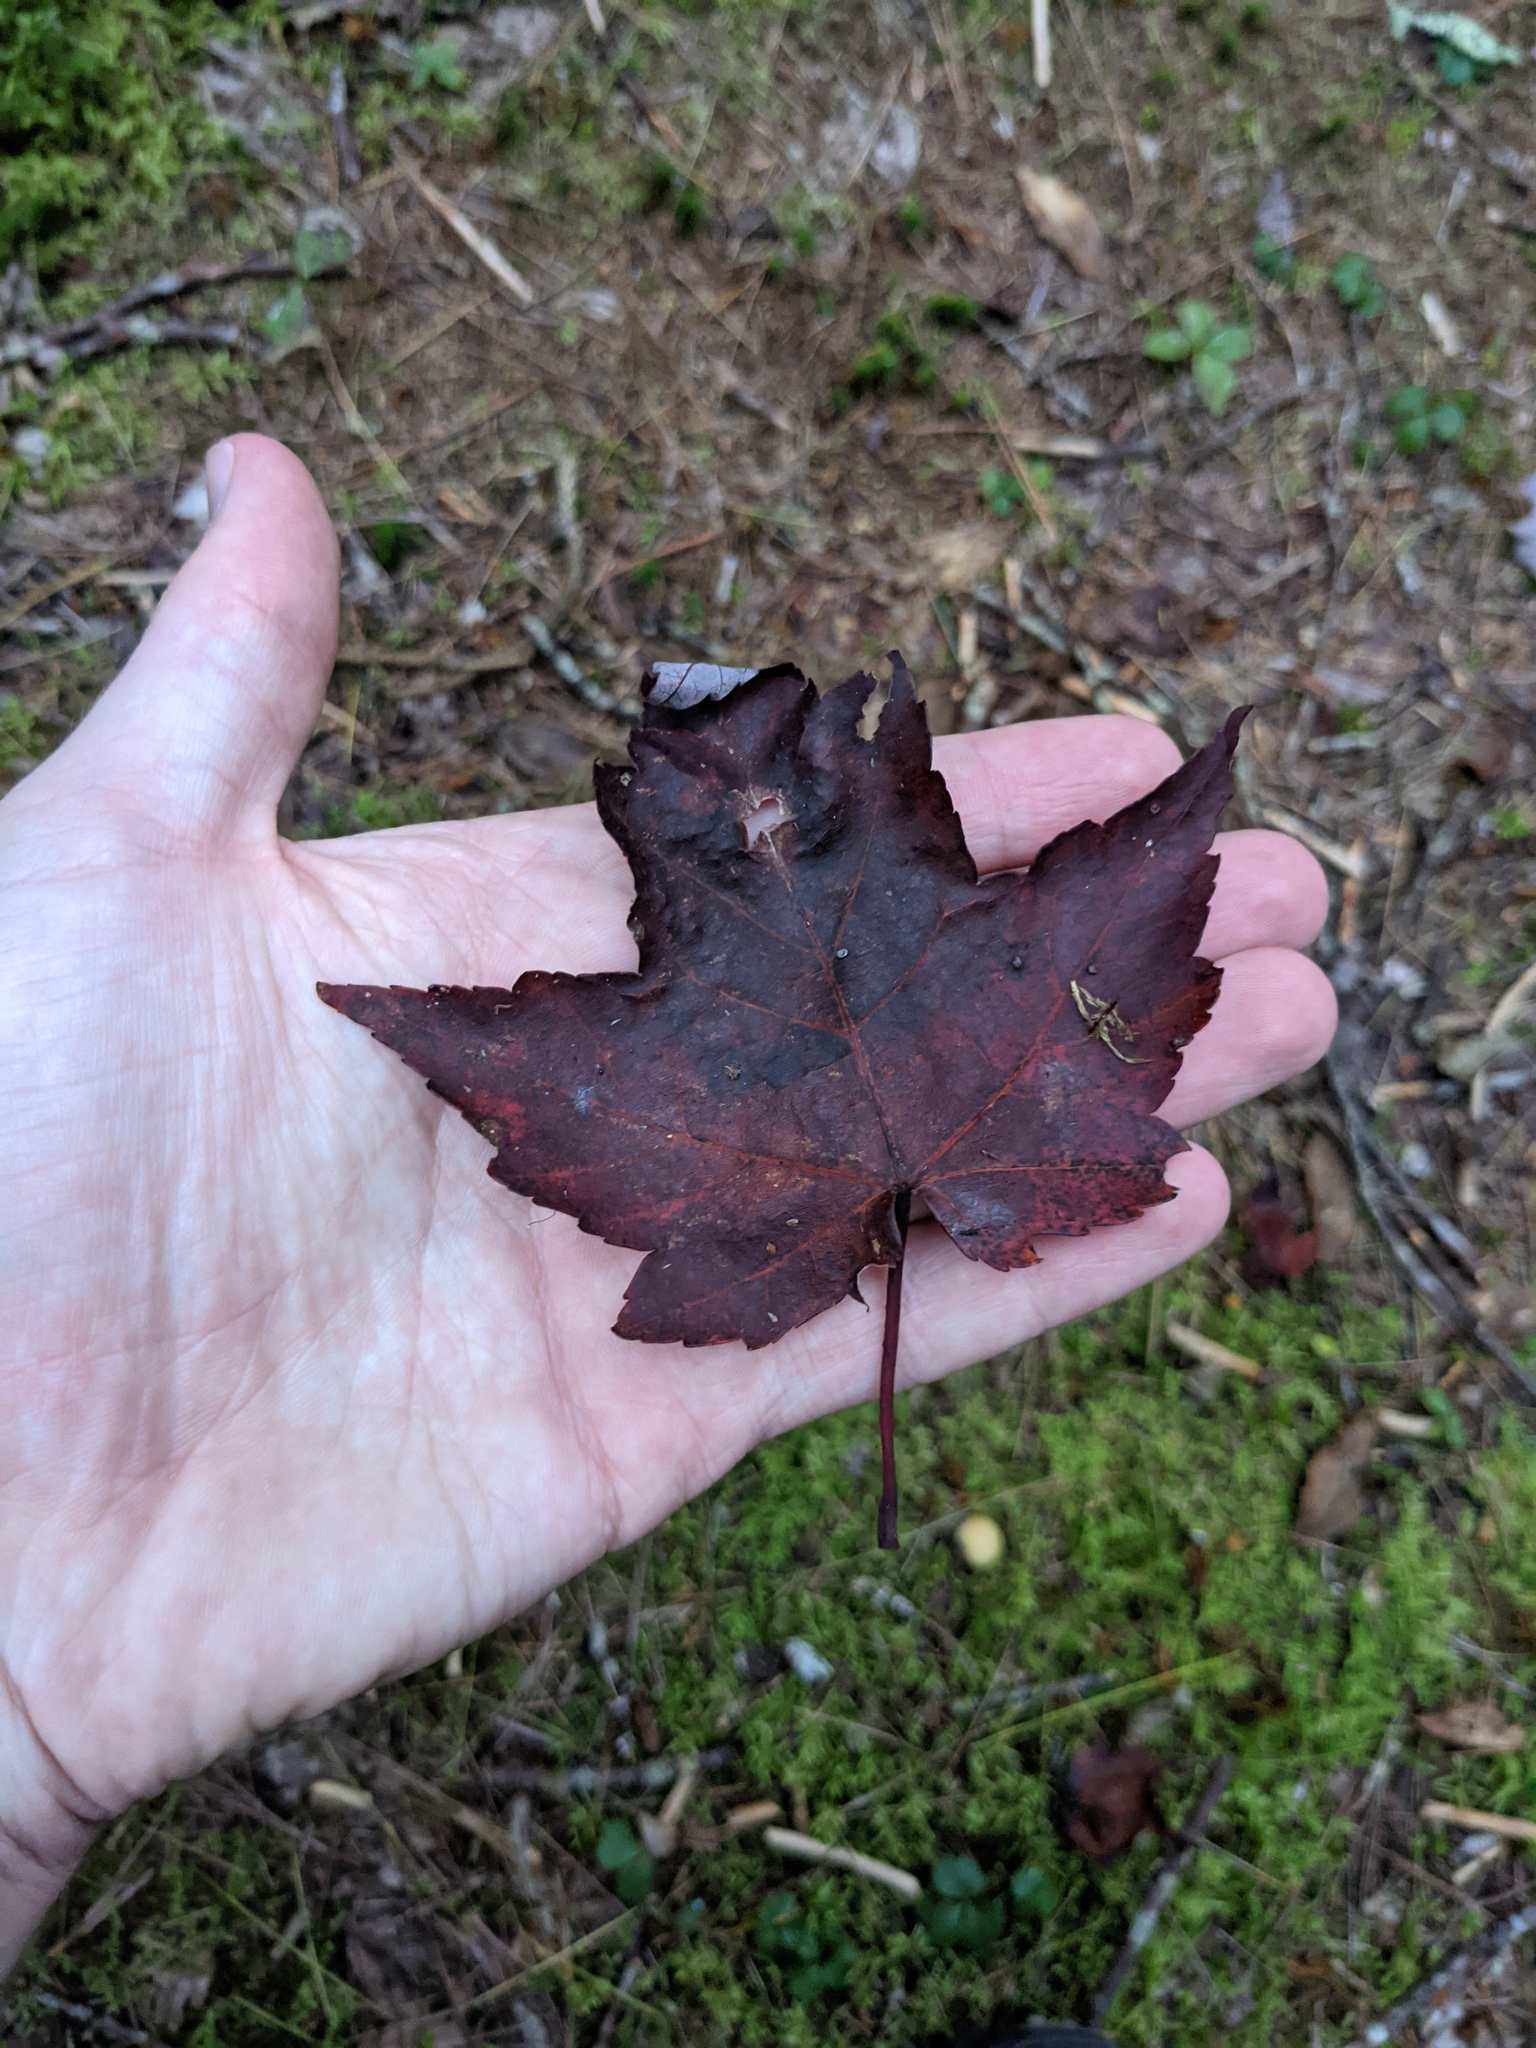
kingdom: Plantae
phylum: Tracheophyta
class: Magnoliopsida
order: Sapindales
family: Sapindaceae
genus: Acer
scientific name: Acer rubrum
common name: Red maple
